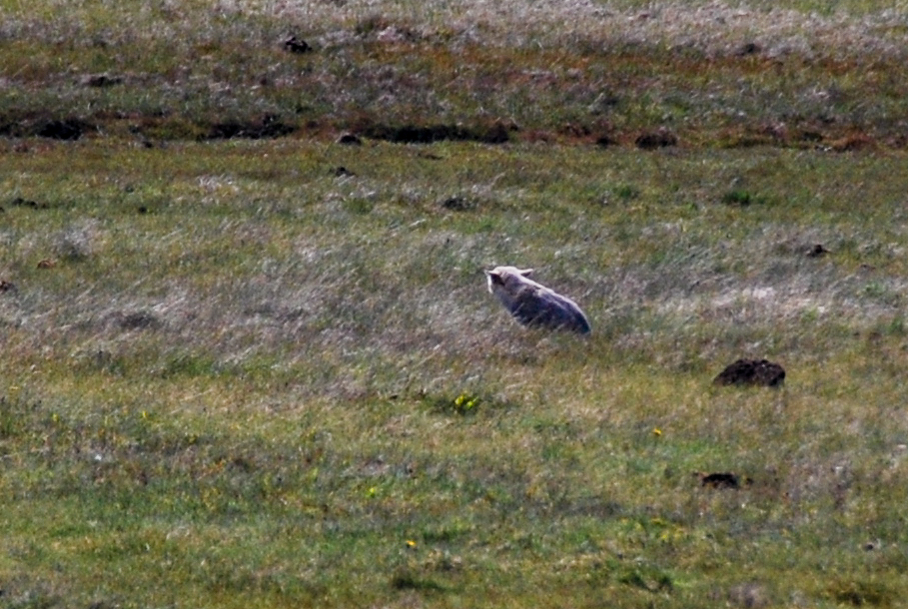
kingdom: Animalia
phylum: Chordata
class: Mammalia
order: Carnivora
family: Canidae
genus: Lycalopex
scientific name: Lycalopex
